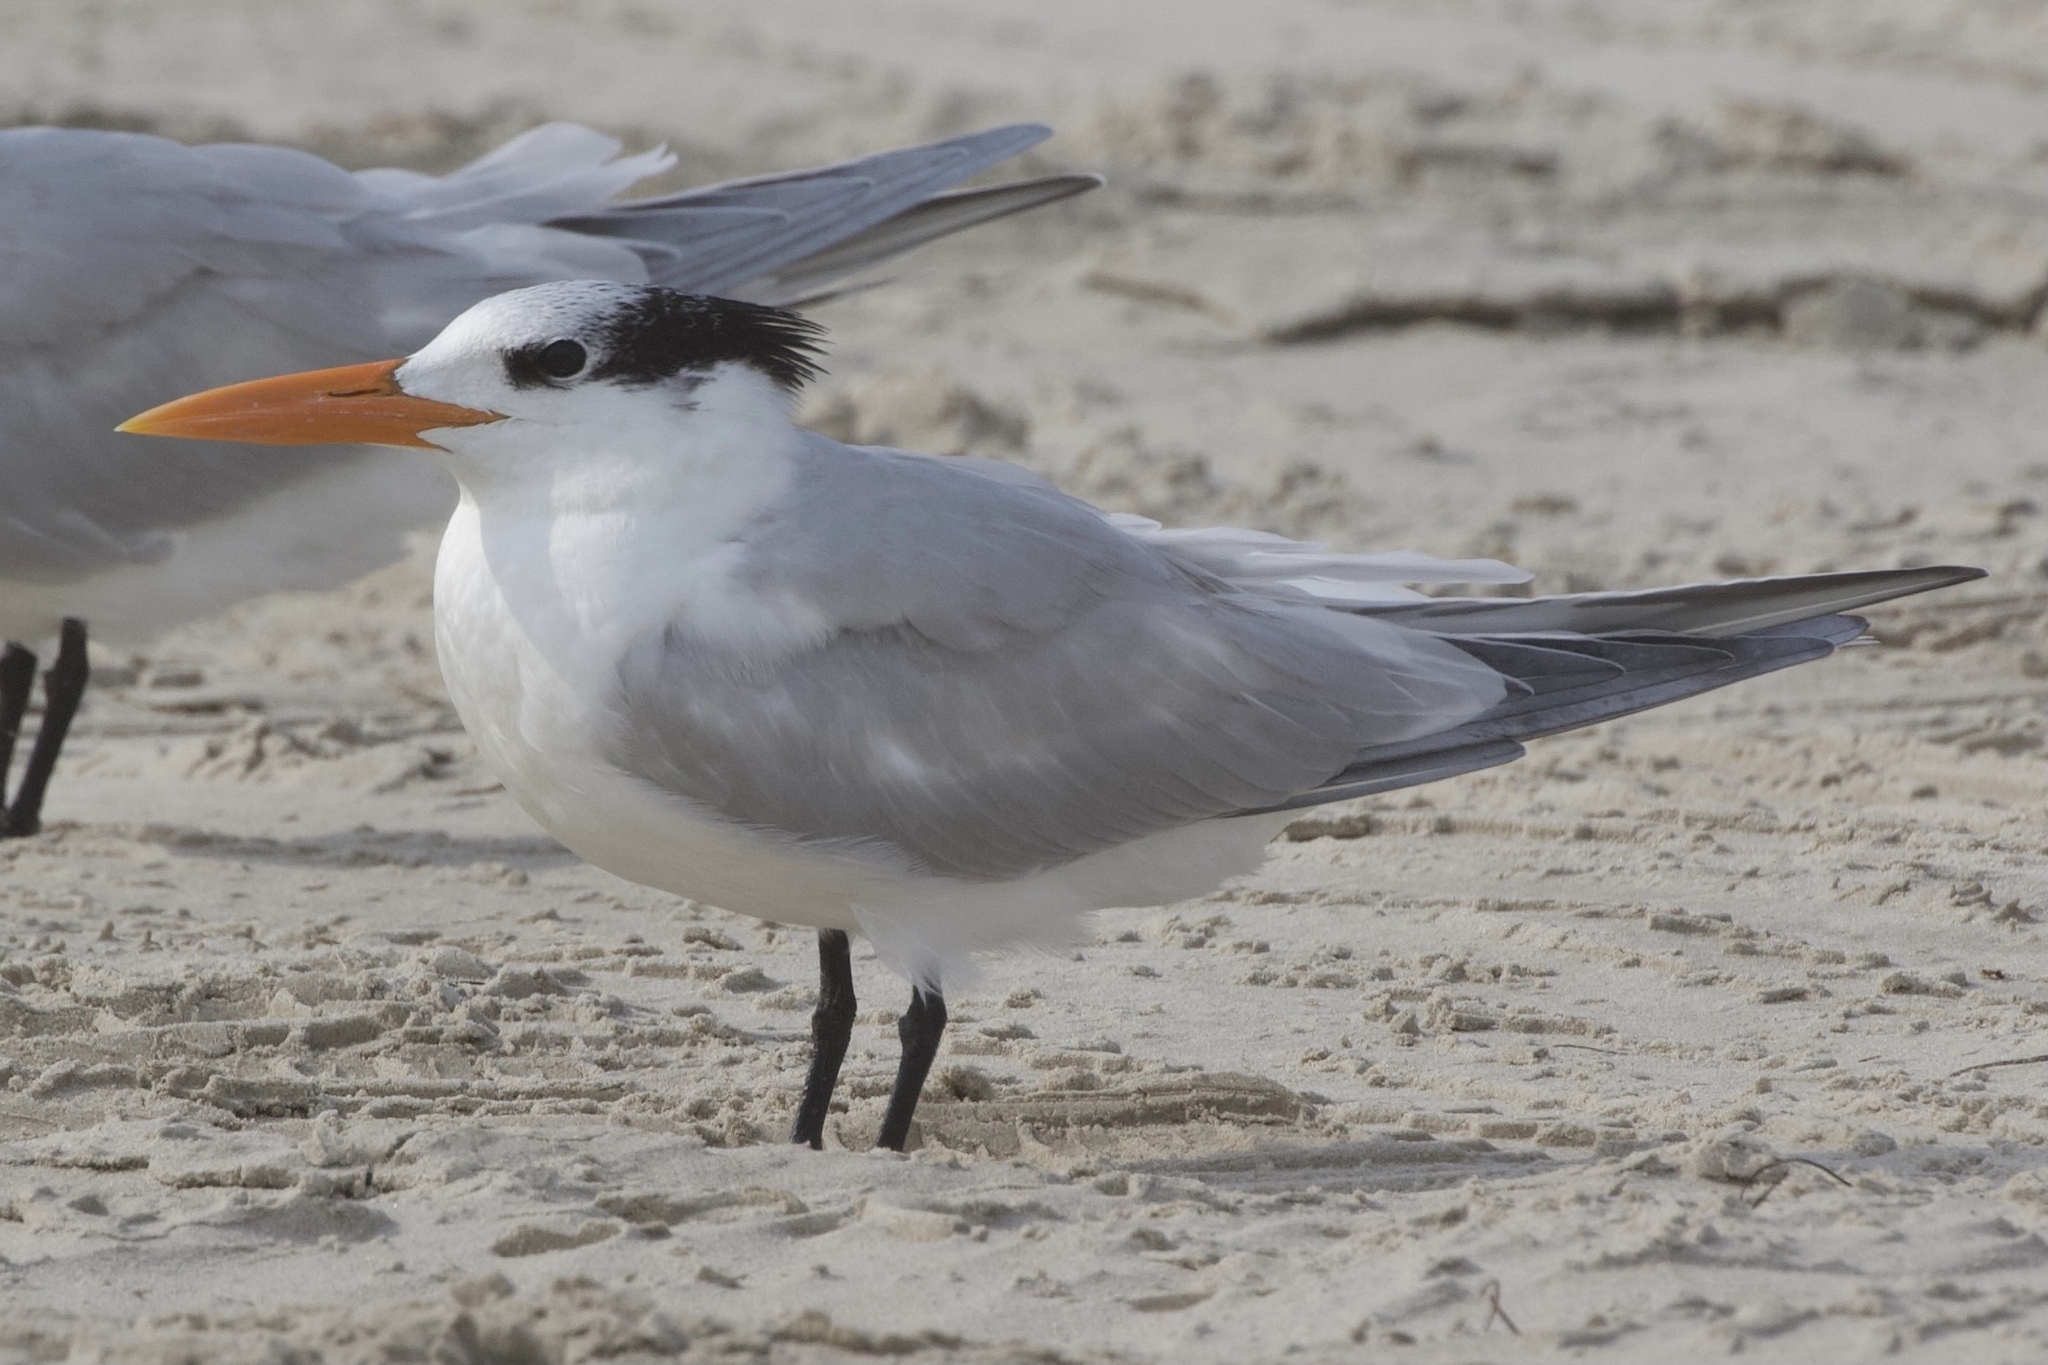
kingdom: Animalia
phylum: Chordata
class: Aves
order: Charadriiformes
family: Laridae
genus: Thalasseus
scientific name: Thalasseus maximus
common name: Royal tern
